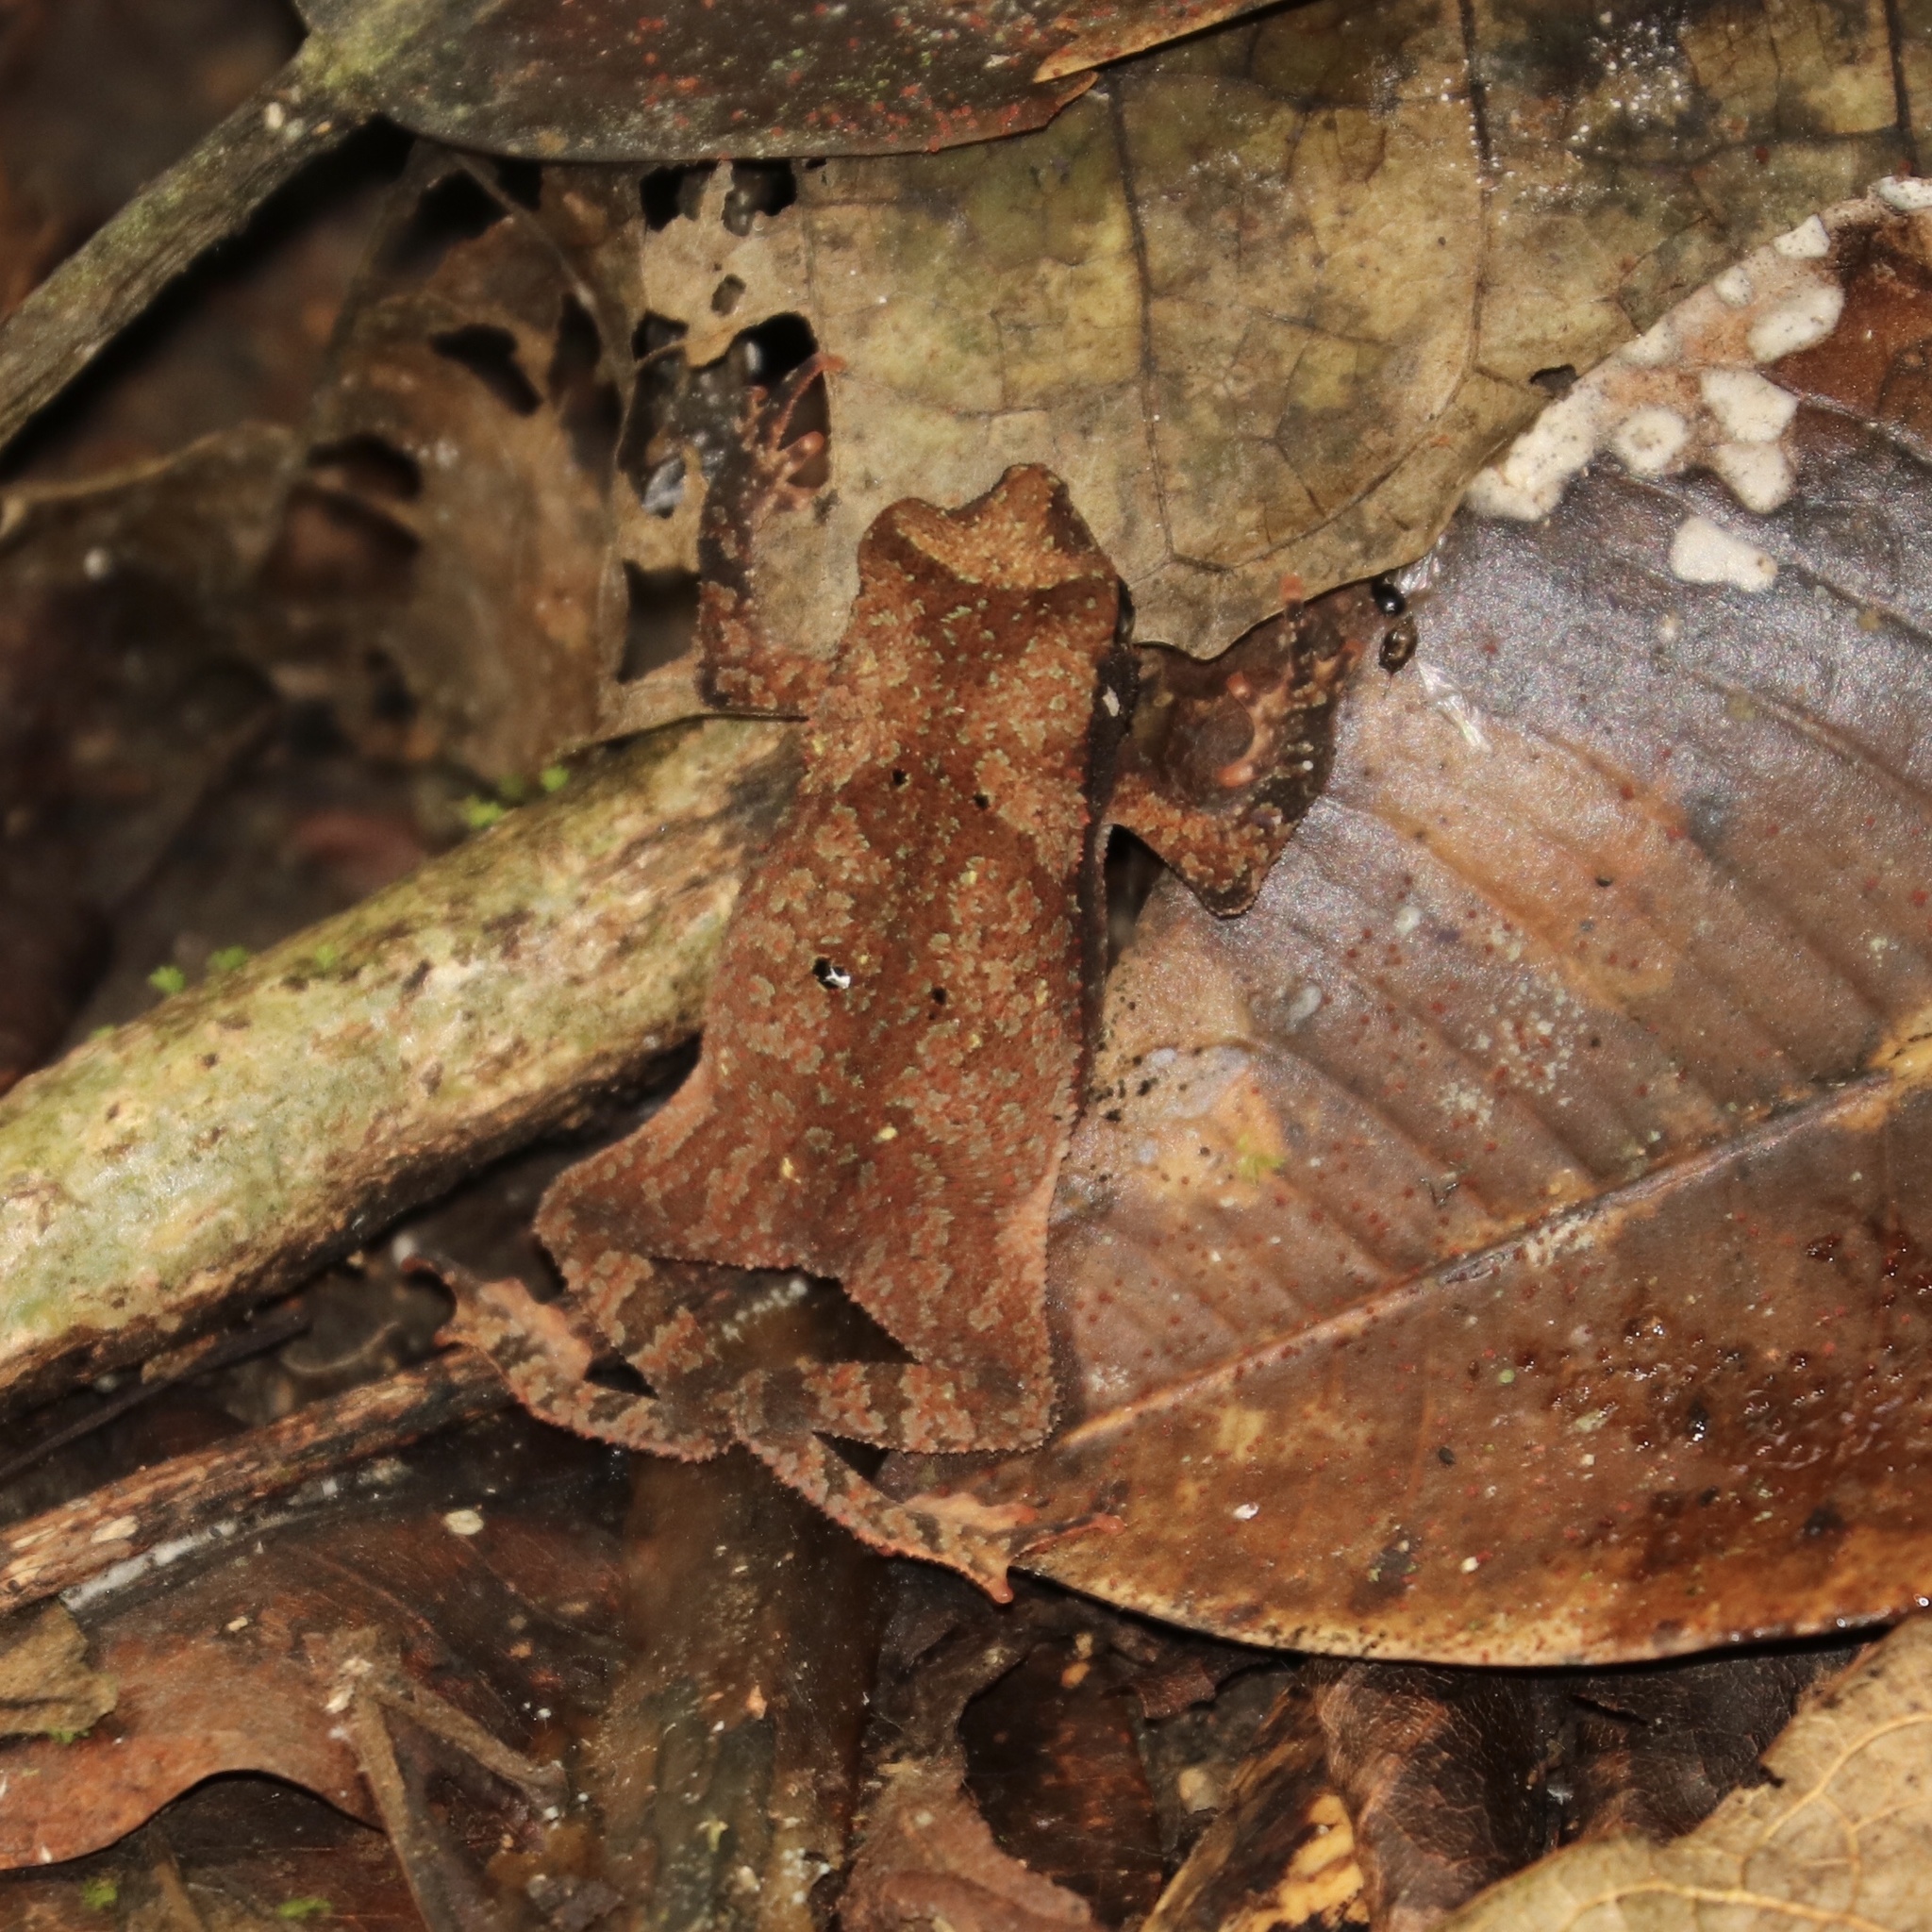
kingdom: Animalia
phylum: Chordata
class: Amphibia
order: Anura
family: Bufonidae
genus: Rhinella
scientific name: Rhinella alata
